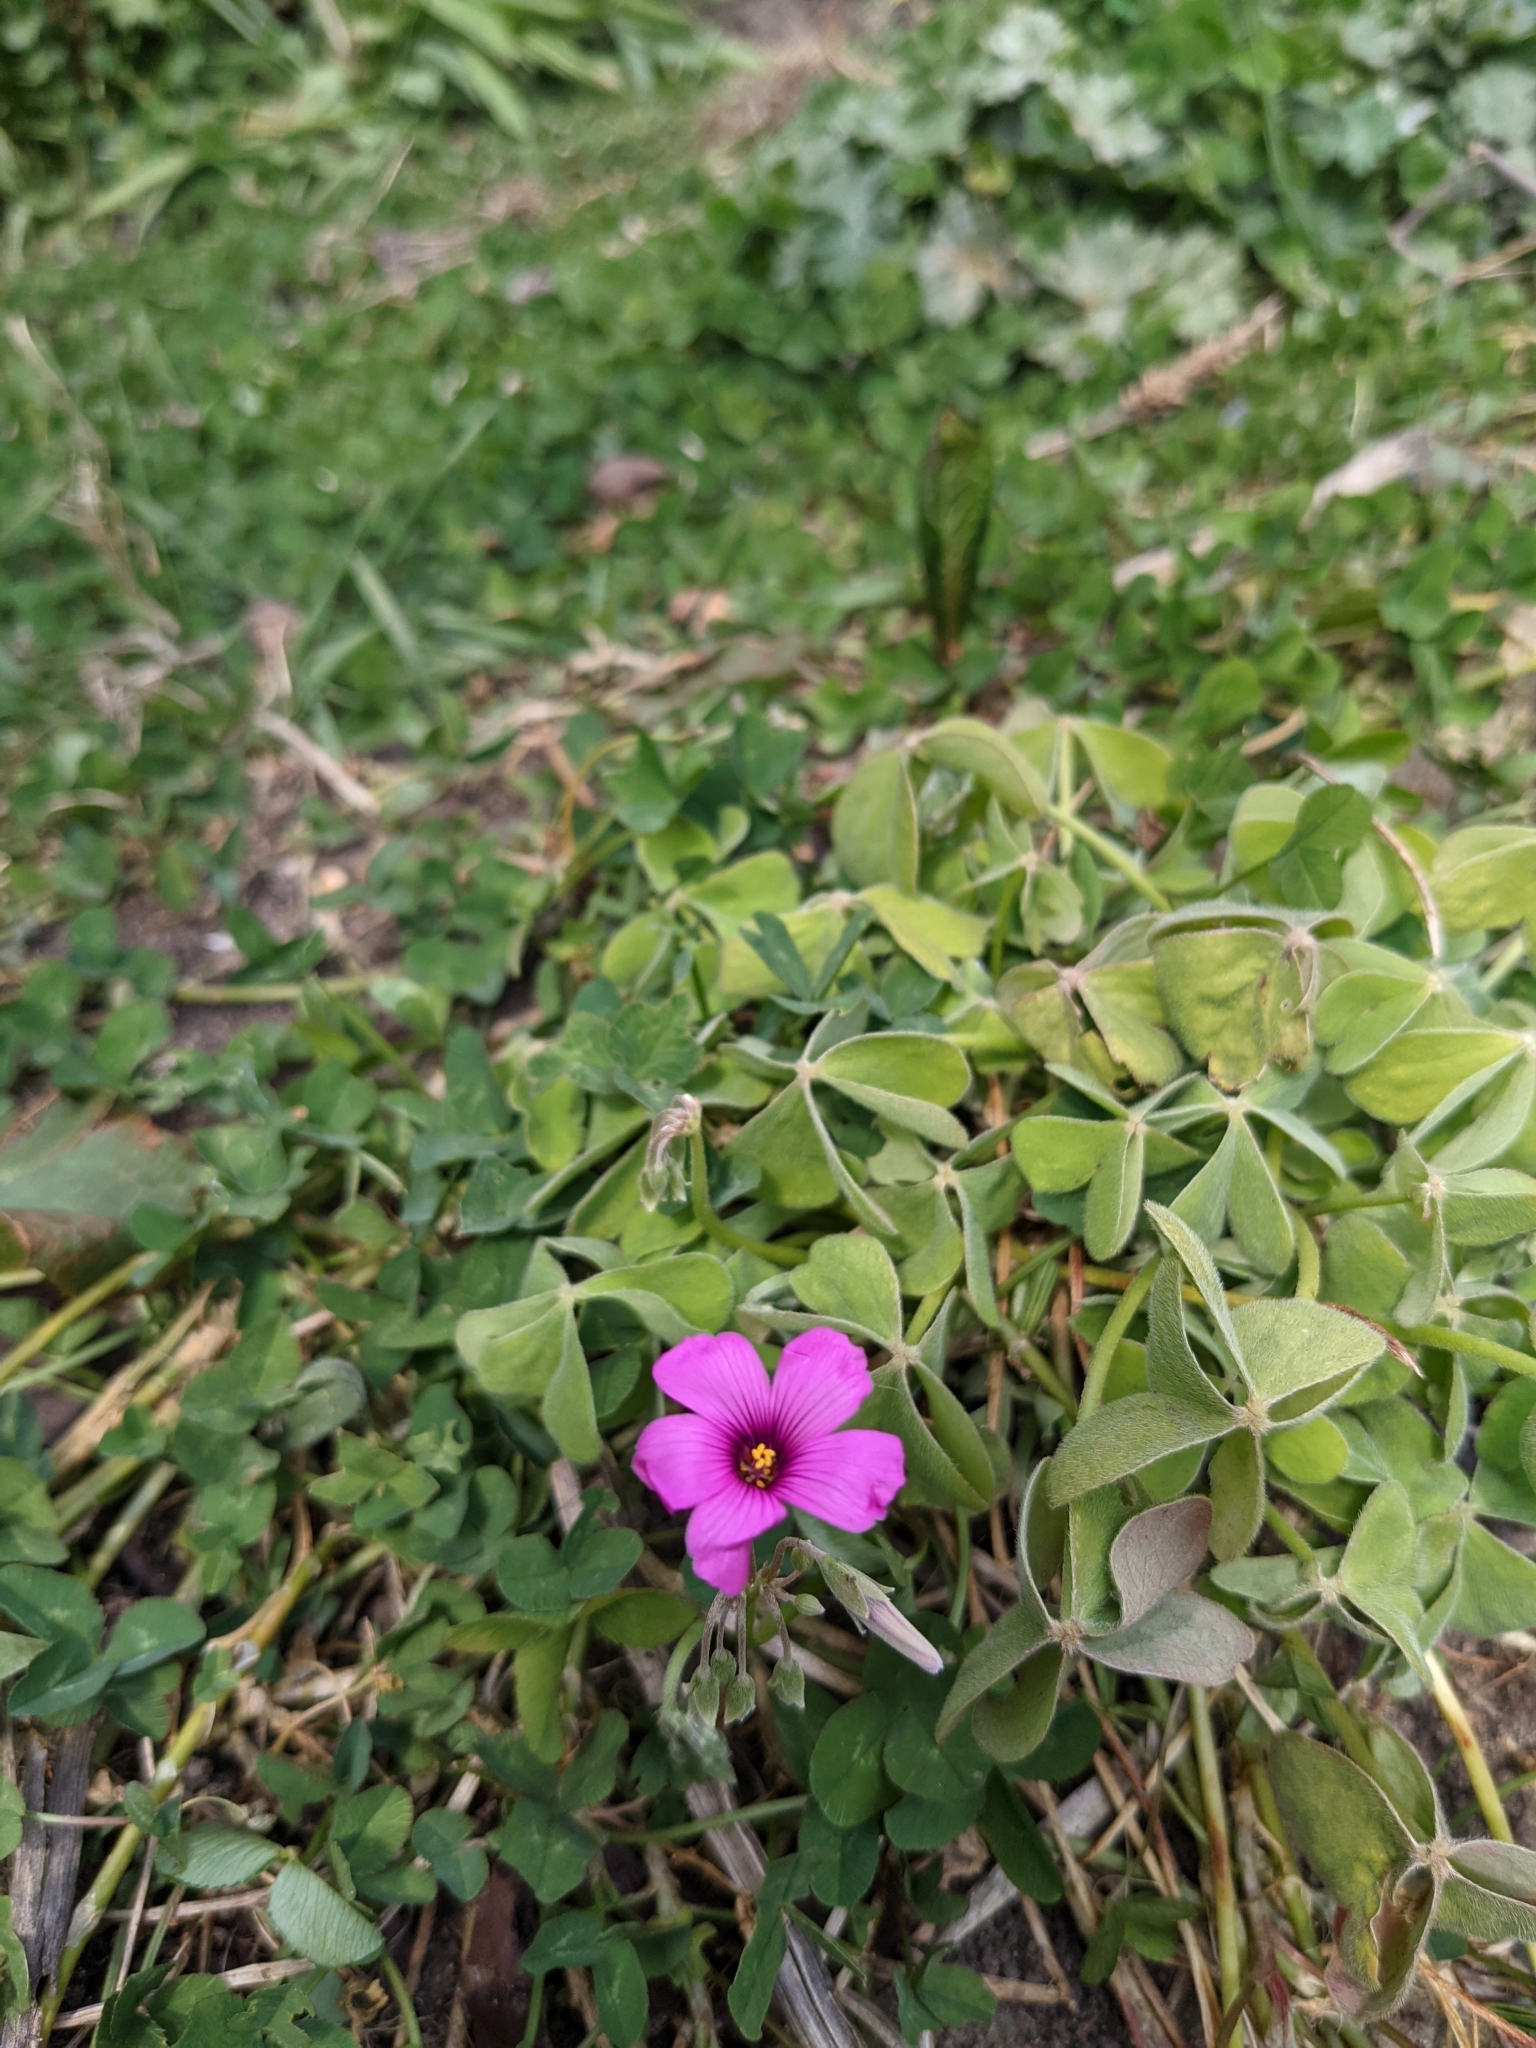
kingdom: Plantae
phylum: Tracheophyta
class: Magnoliopsida
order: Oxalidales
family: Oxalidaceae
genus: Oxalis
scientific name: Oxalis articulata
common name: Pink-sorrel
